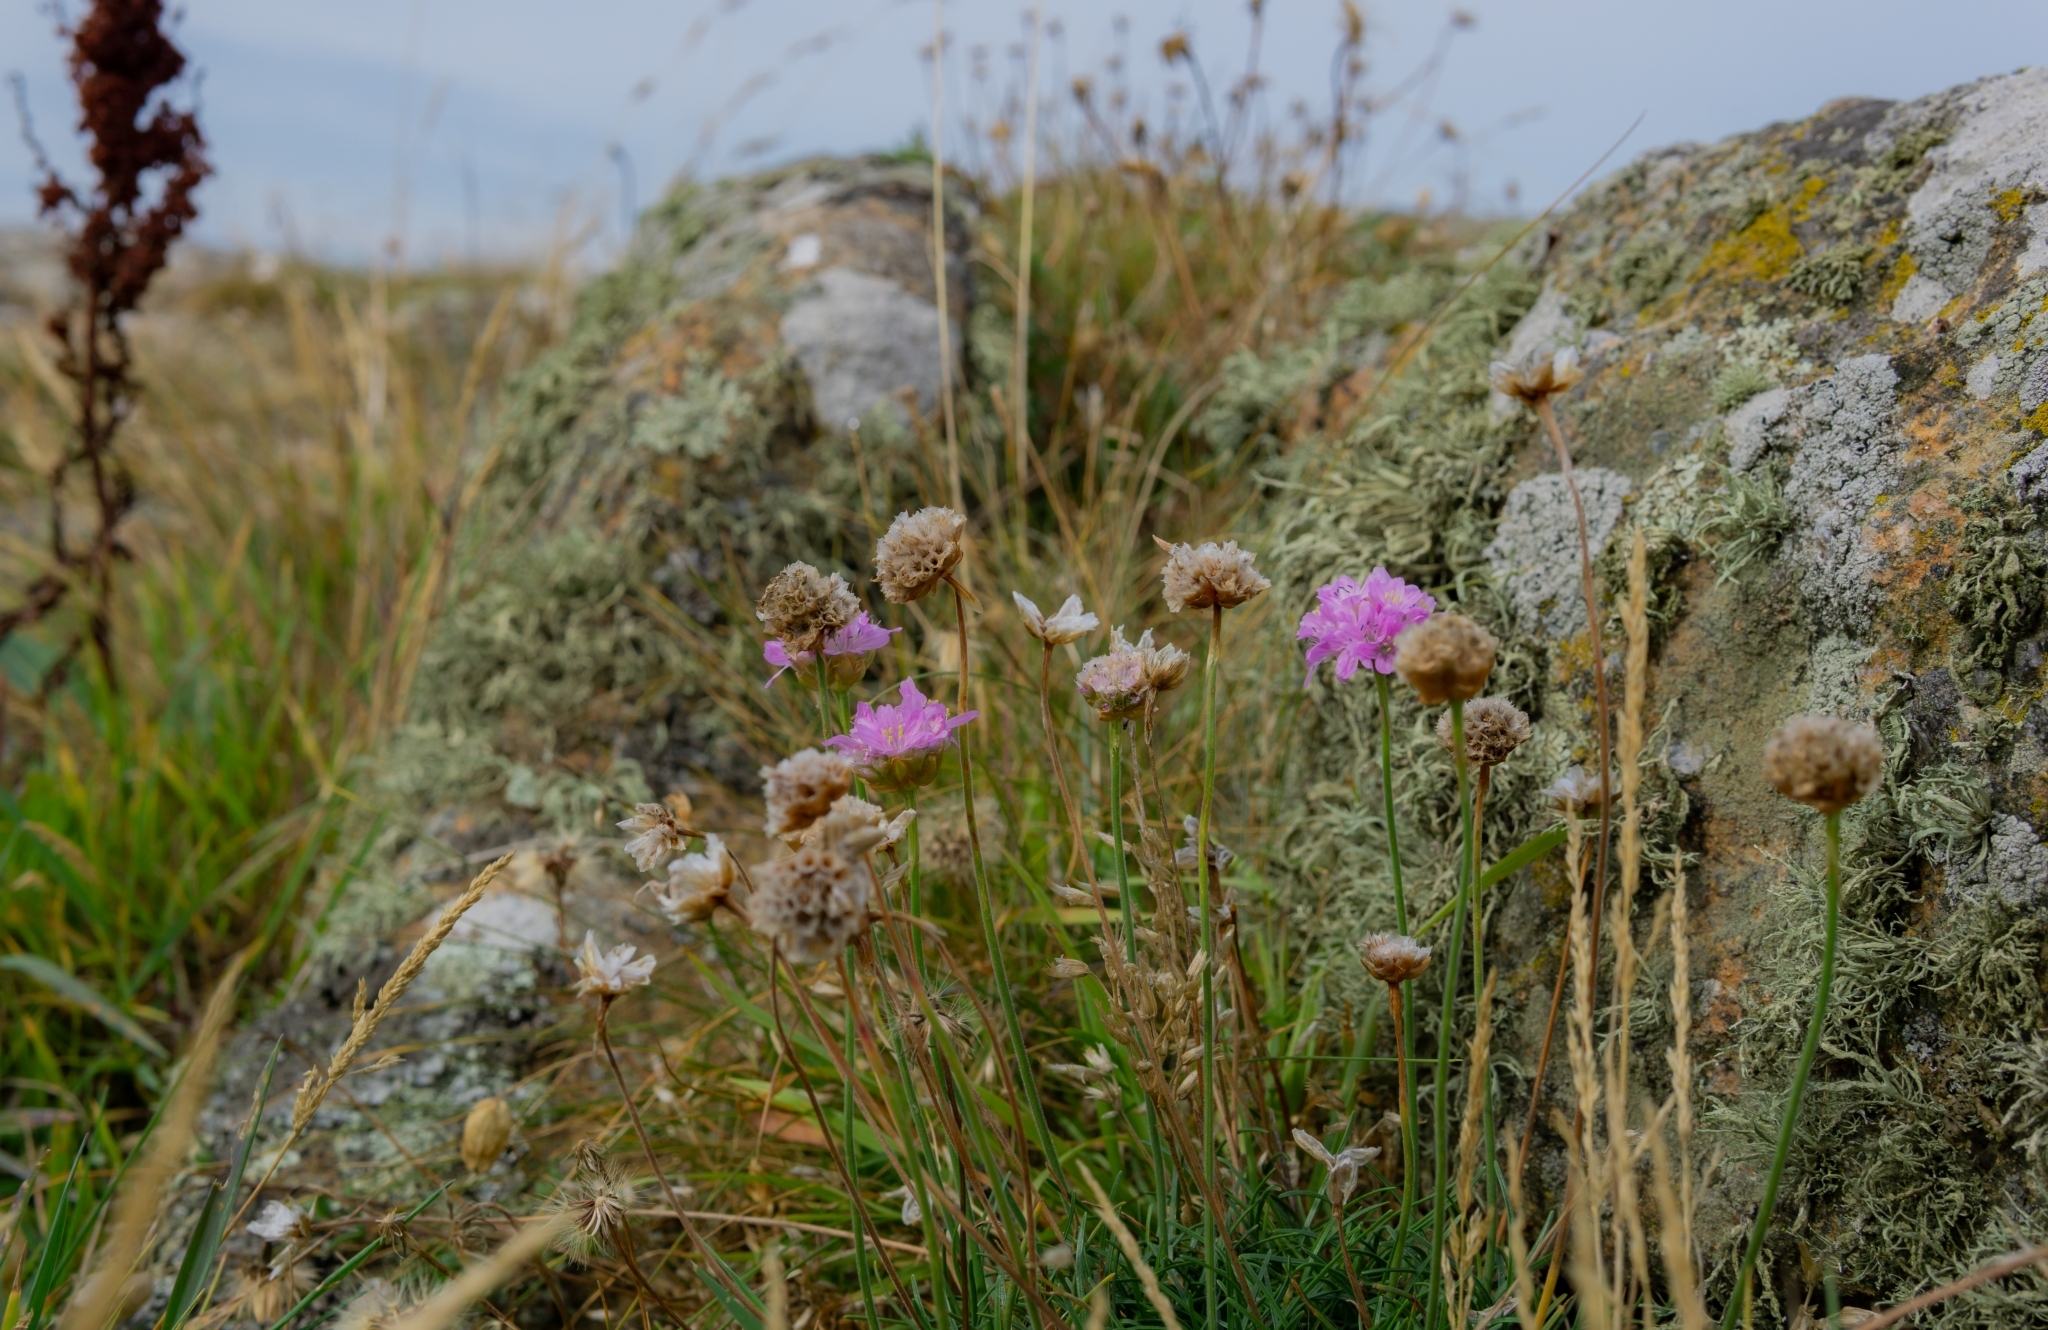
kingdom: Plantae
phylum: Tracheophyta
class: Magnoliopsida
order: Caryophyllales
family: Plumbaginaceae
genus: Armeria
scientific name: Armeria maritima
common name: Thrift
